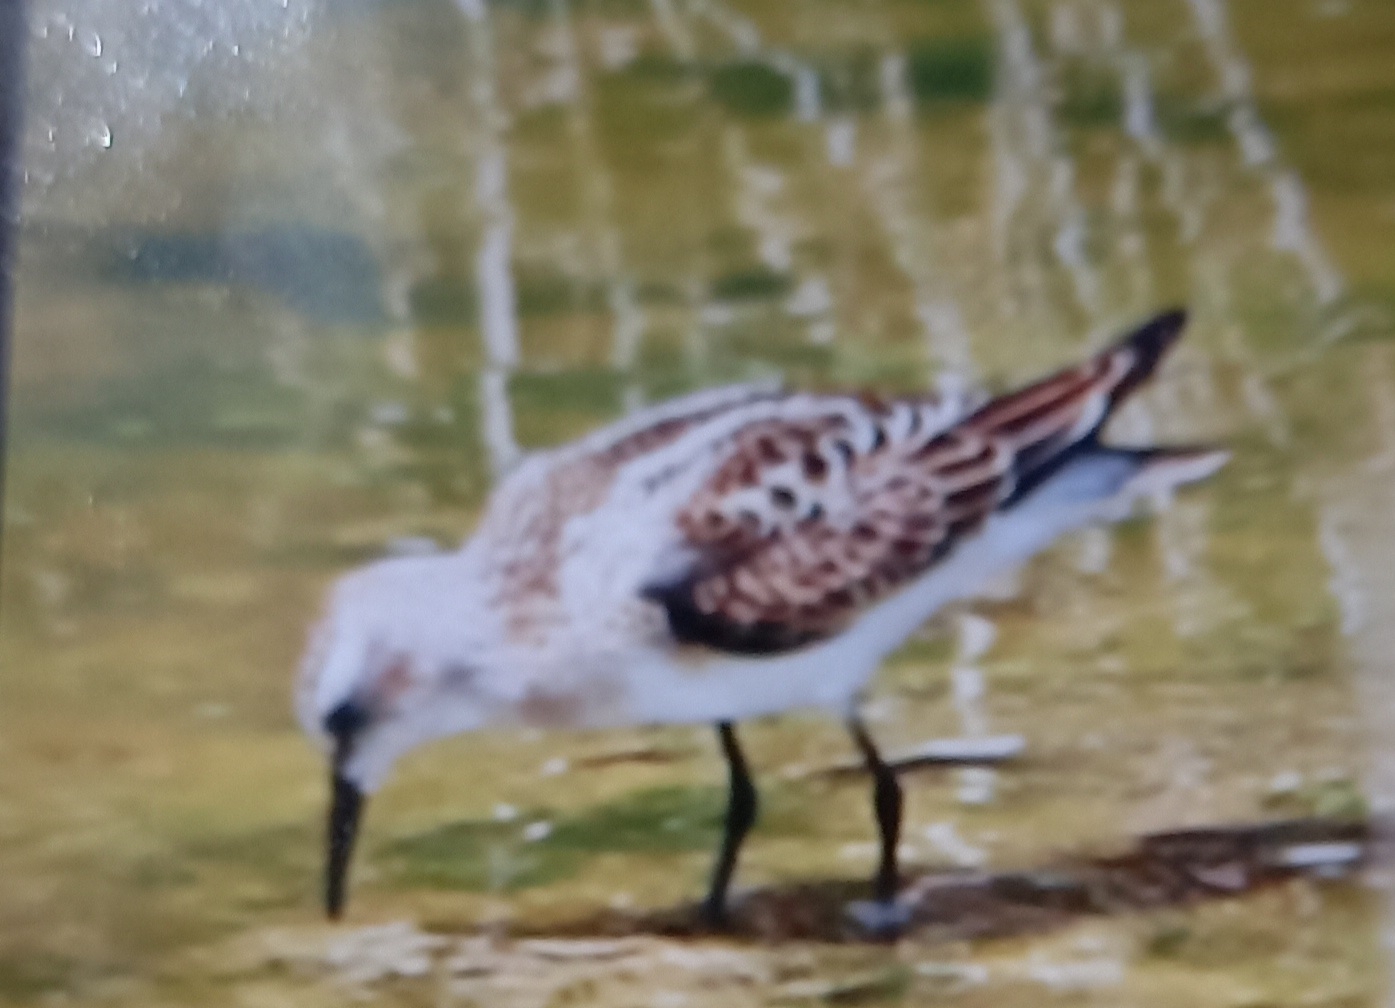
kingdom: Animalia
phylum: Chordata
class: Aves
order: Charadriiformes
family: Scolopacidae
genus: Calidris
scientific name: Calidris minuta
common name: Little stint
